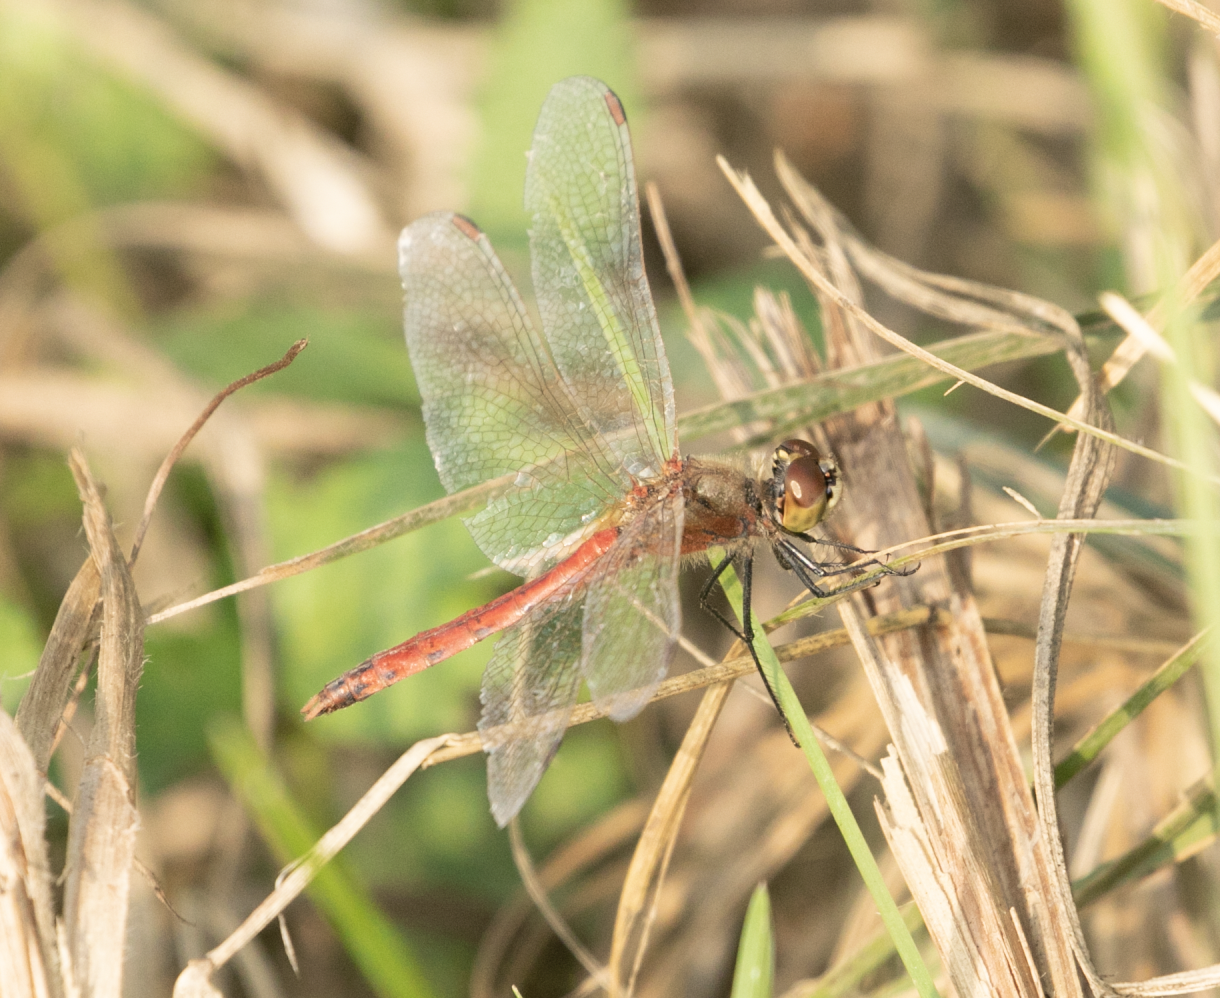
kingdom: Animalia
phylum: Arthropoda
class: Insecta
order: Odonata
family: Libellulidae
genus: Sympetrum
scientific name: Sympetrum depressiusculum
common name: Spotted darter
